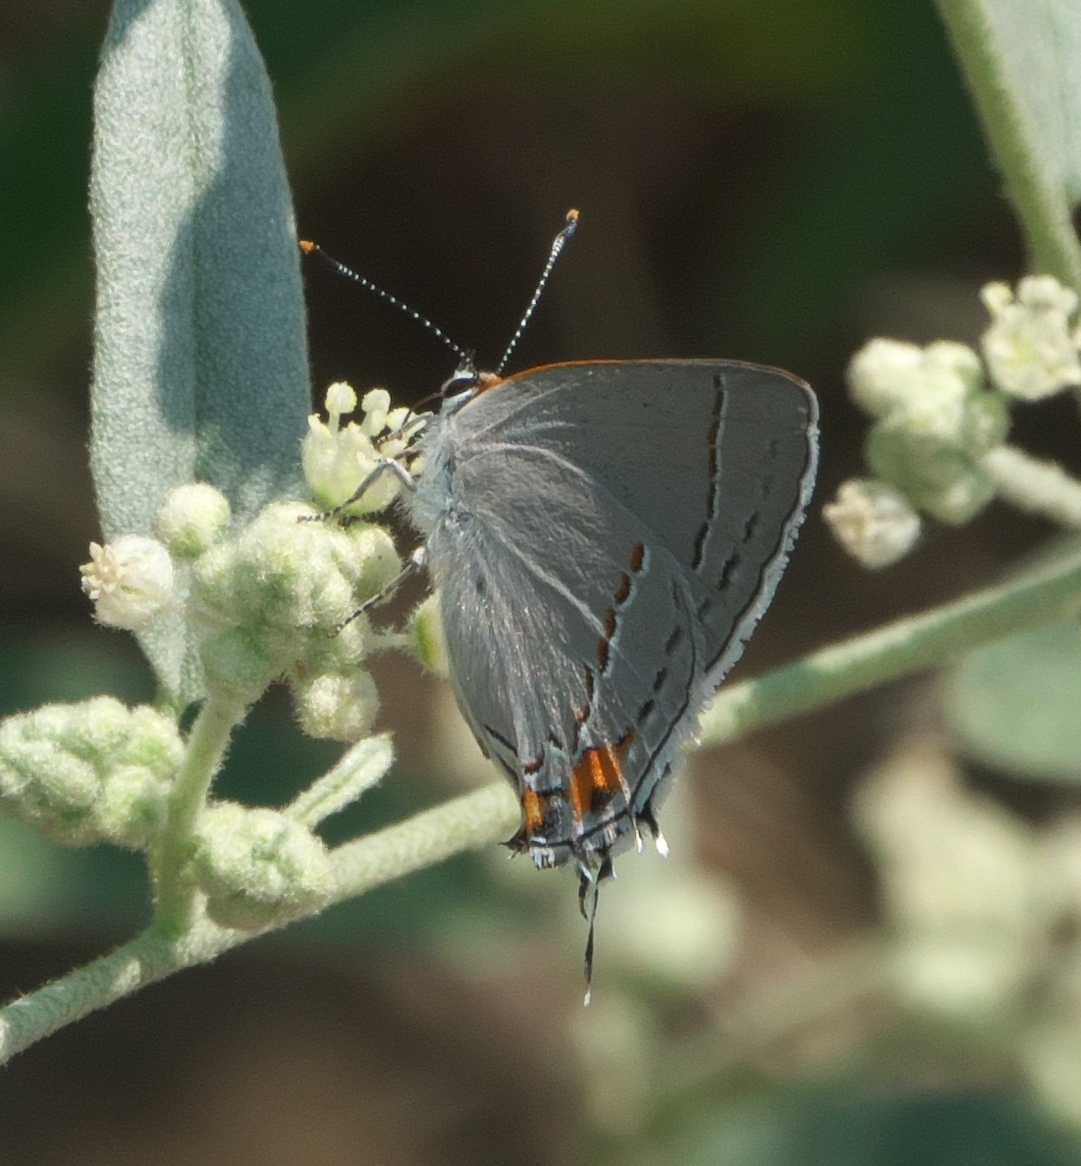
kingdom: Animalia
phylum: Arthropoda
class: Insecta
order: Lepidoptera
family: Lycaenidae
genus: Strymon
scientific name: Strymon melinus
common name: Gray hairstreak
